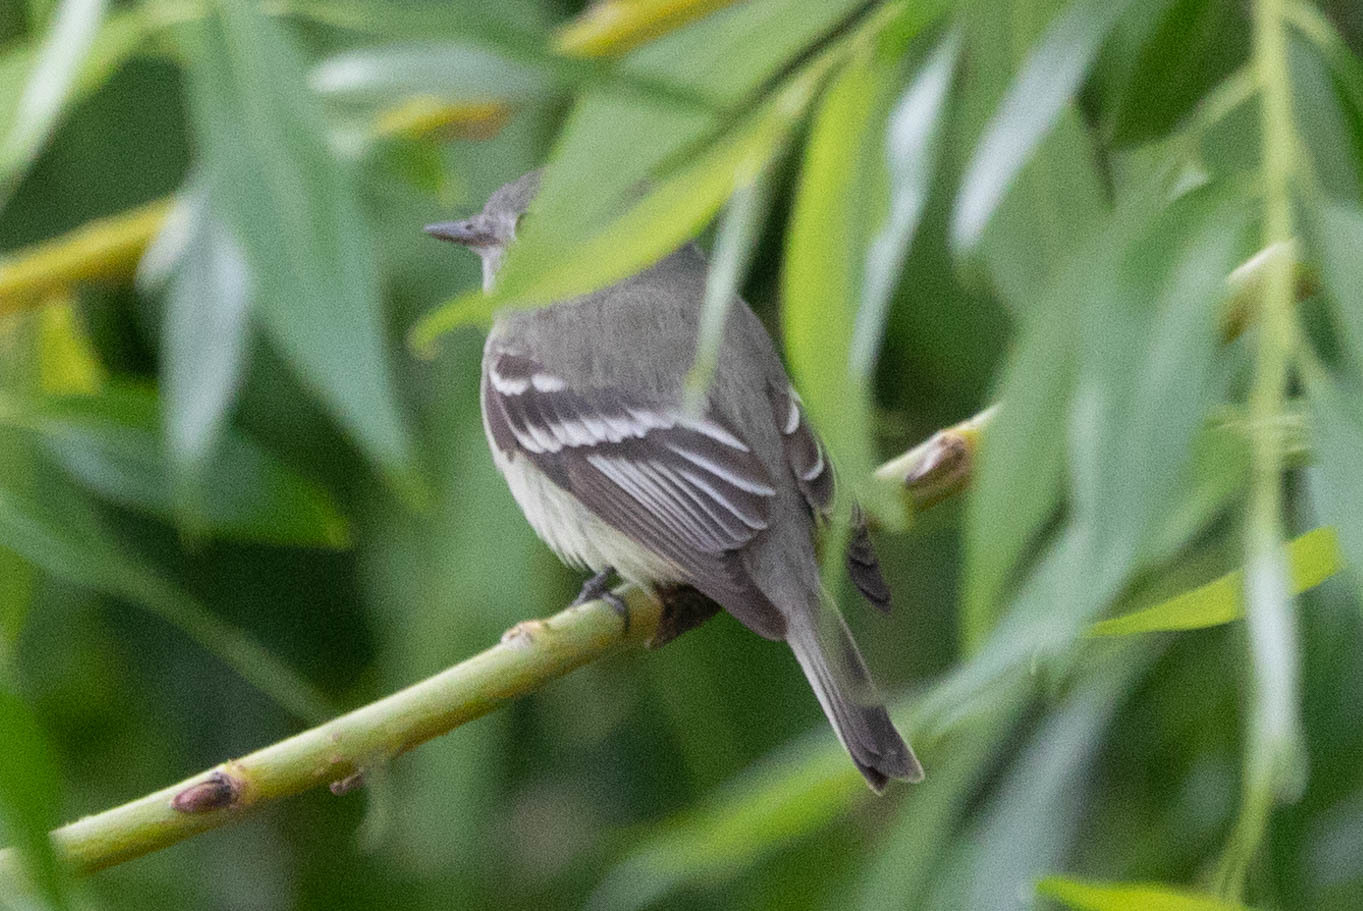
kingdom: Animalia
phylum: Chordata
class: Aves
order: Passeriformes
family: Tyrannidae
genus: Empidonax
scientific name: Empidonax hammondii
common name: Hammond's flycatcher
